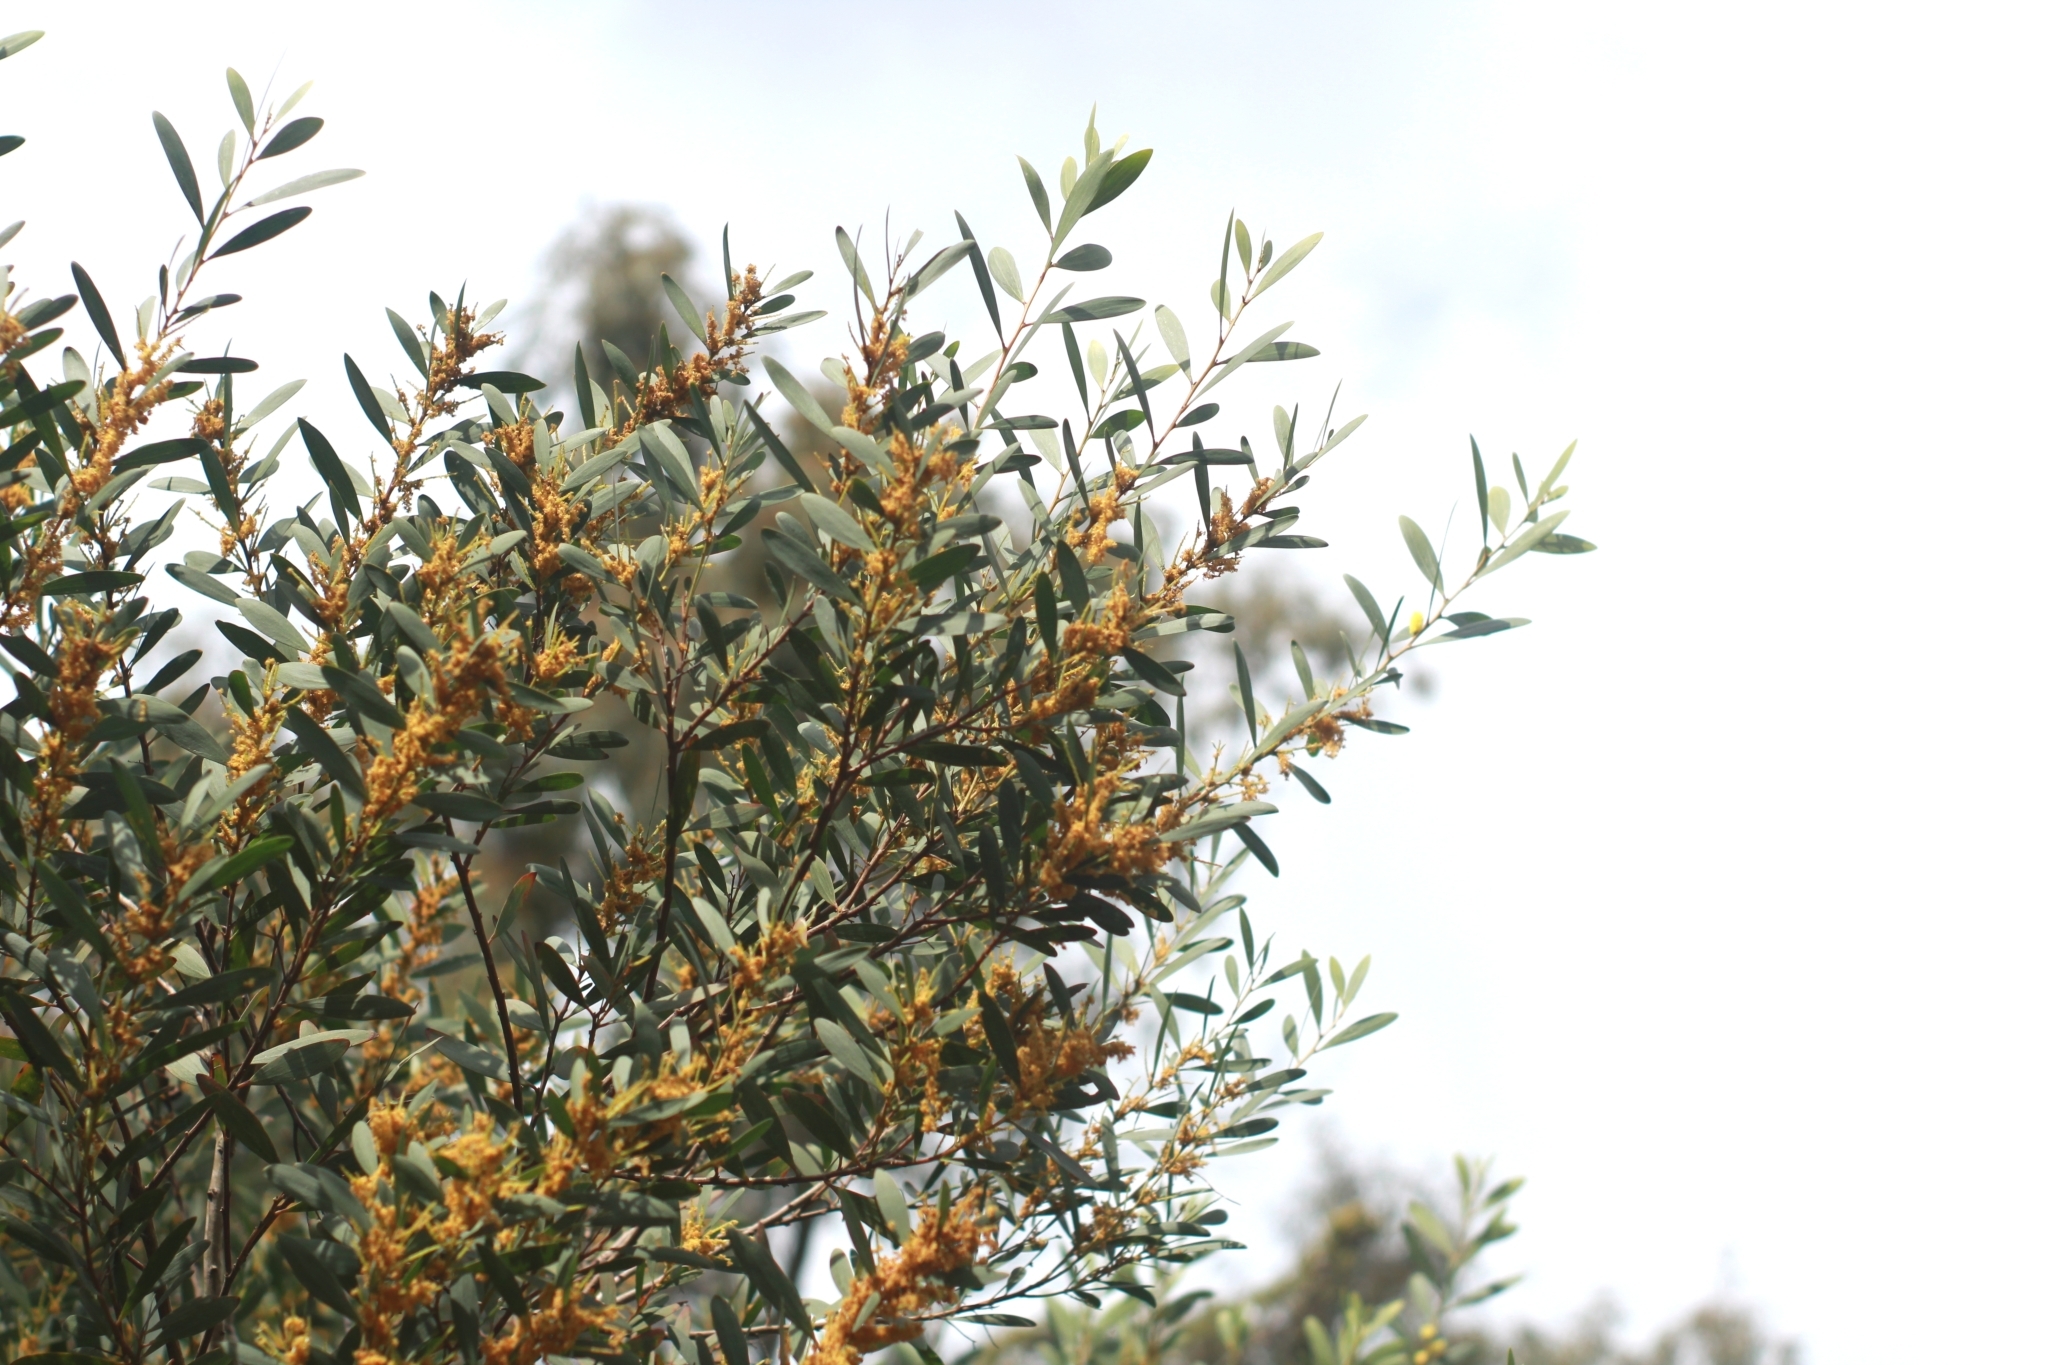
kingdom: Plantae
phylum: Tracheophyta
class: Magnoliopsida
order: Fabales
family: Fabaceae
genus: Acacia
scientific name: Acacia longifolia
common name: Sydney golden wattle
